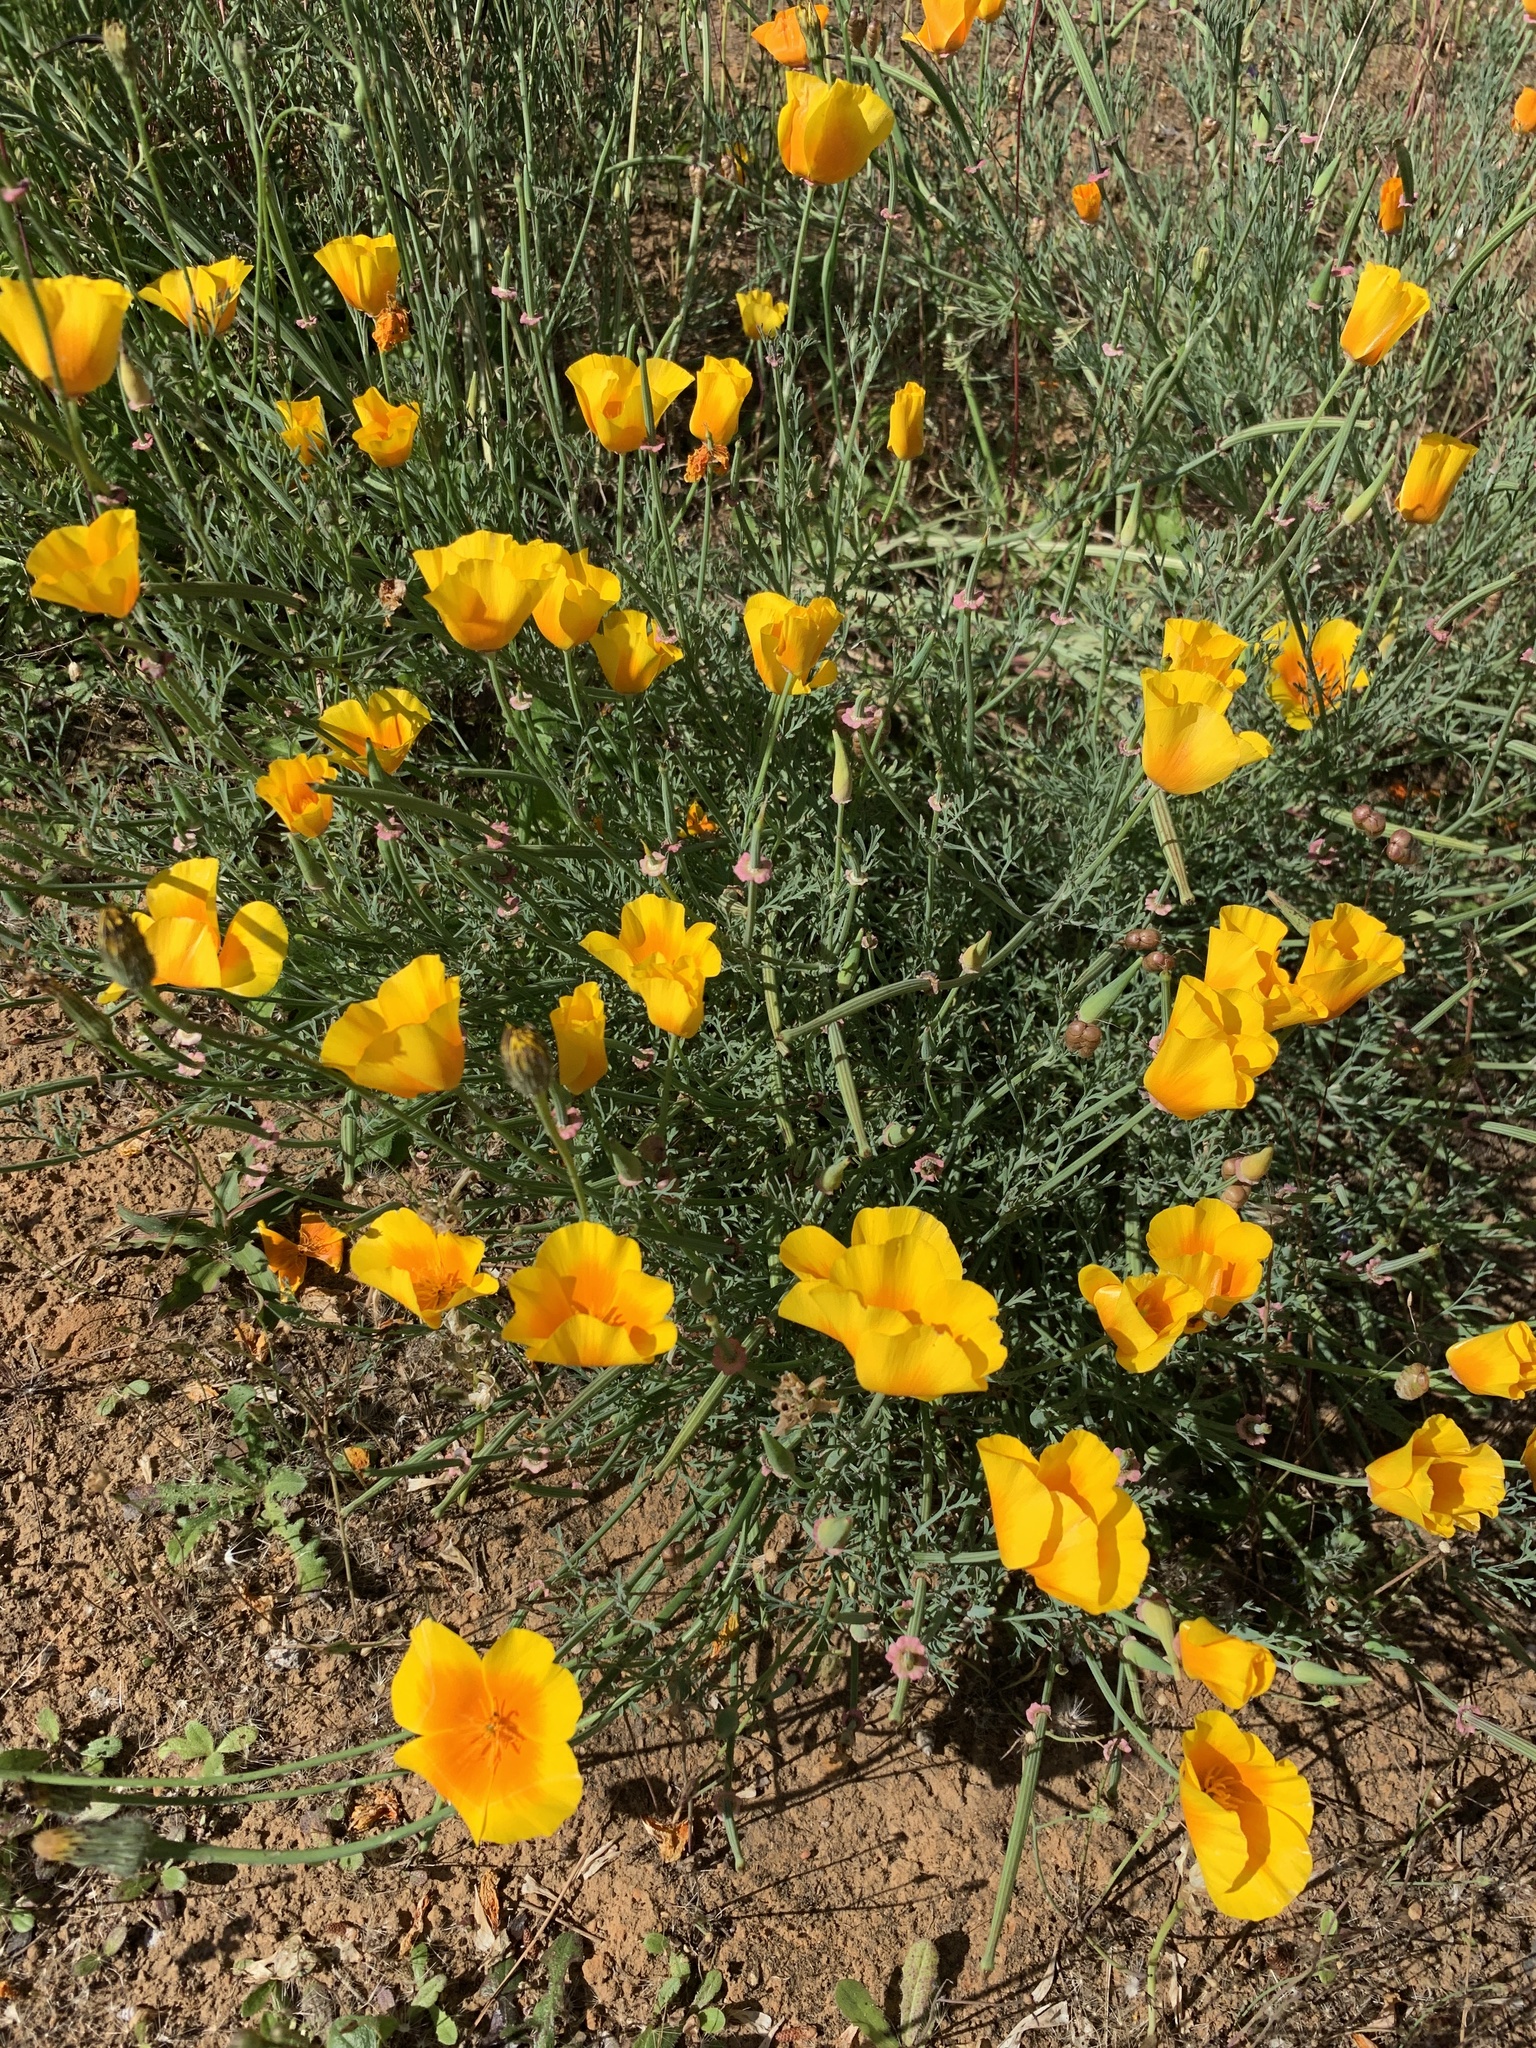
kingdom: Plantae
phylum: Tracheophyta
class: Magnoliopsida
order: Ranunculales
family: Papaveraceae
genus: Eschscholzia
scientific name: Eschscholzia californica
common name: California poppy
